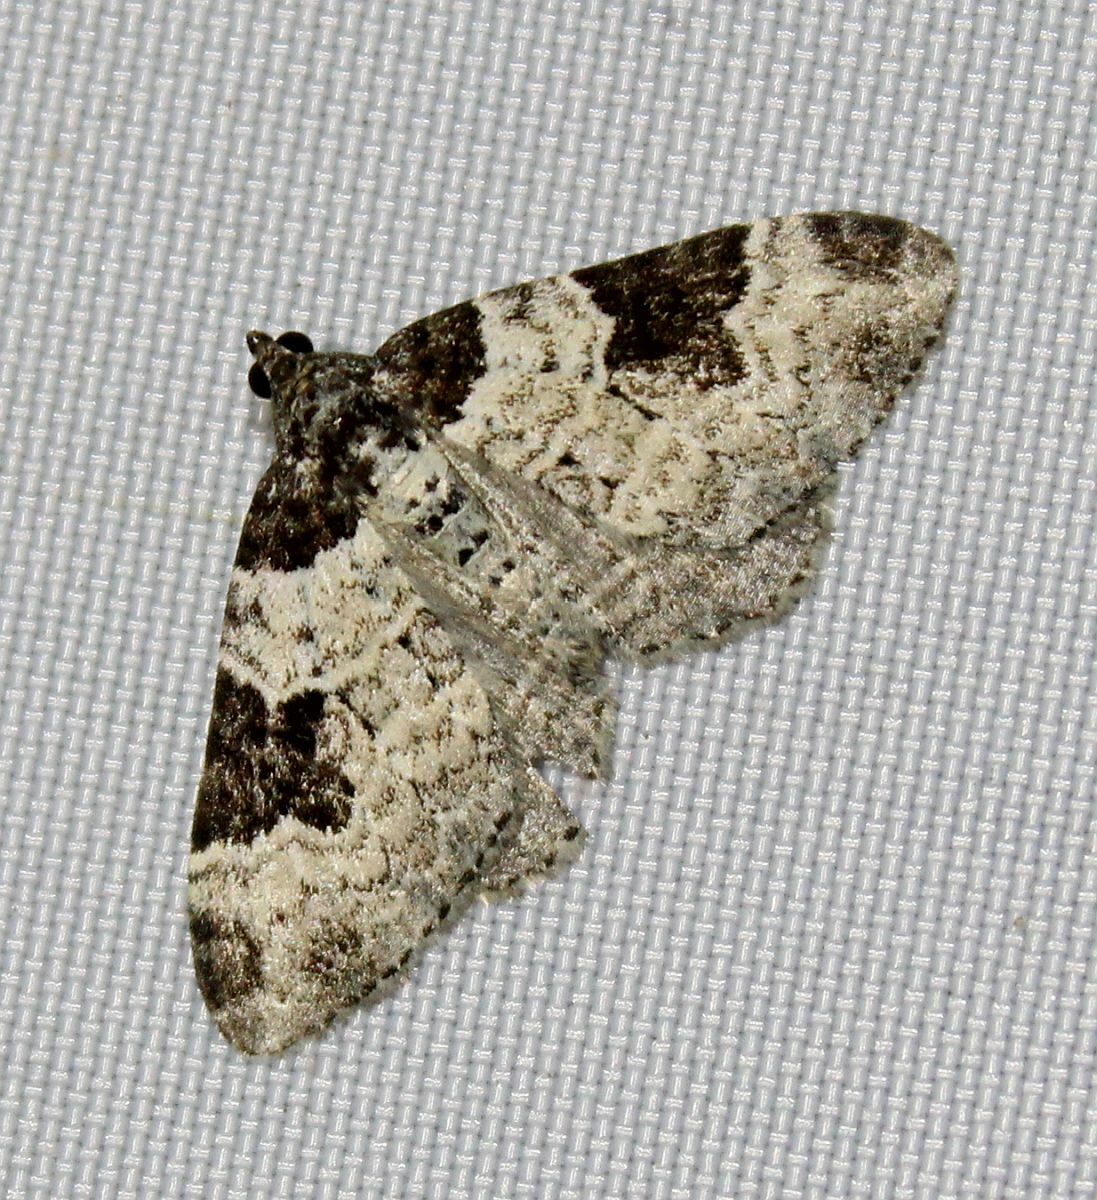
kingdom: Animalia
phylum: Arthropoda
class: Insecta
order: Lepidoptera
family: Geometridae
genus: Xanthorhoe
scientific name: Xanthorhoe fluctuata
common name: Garden carpet
